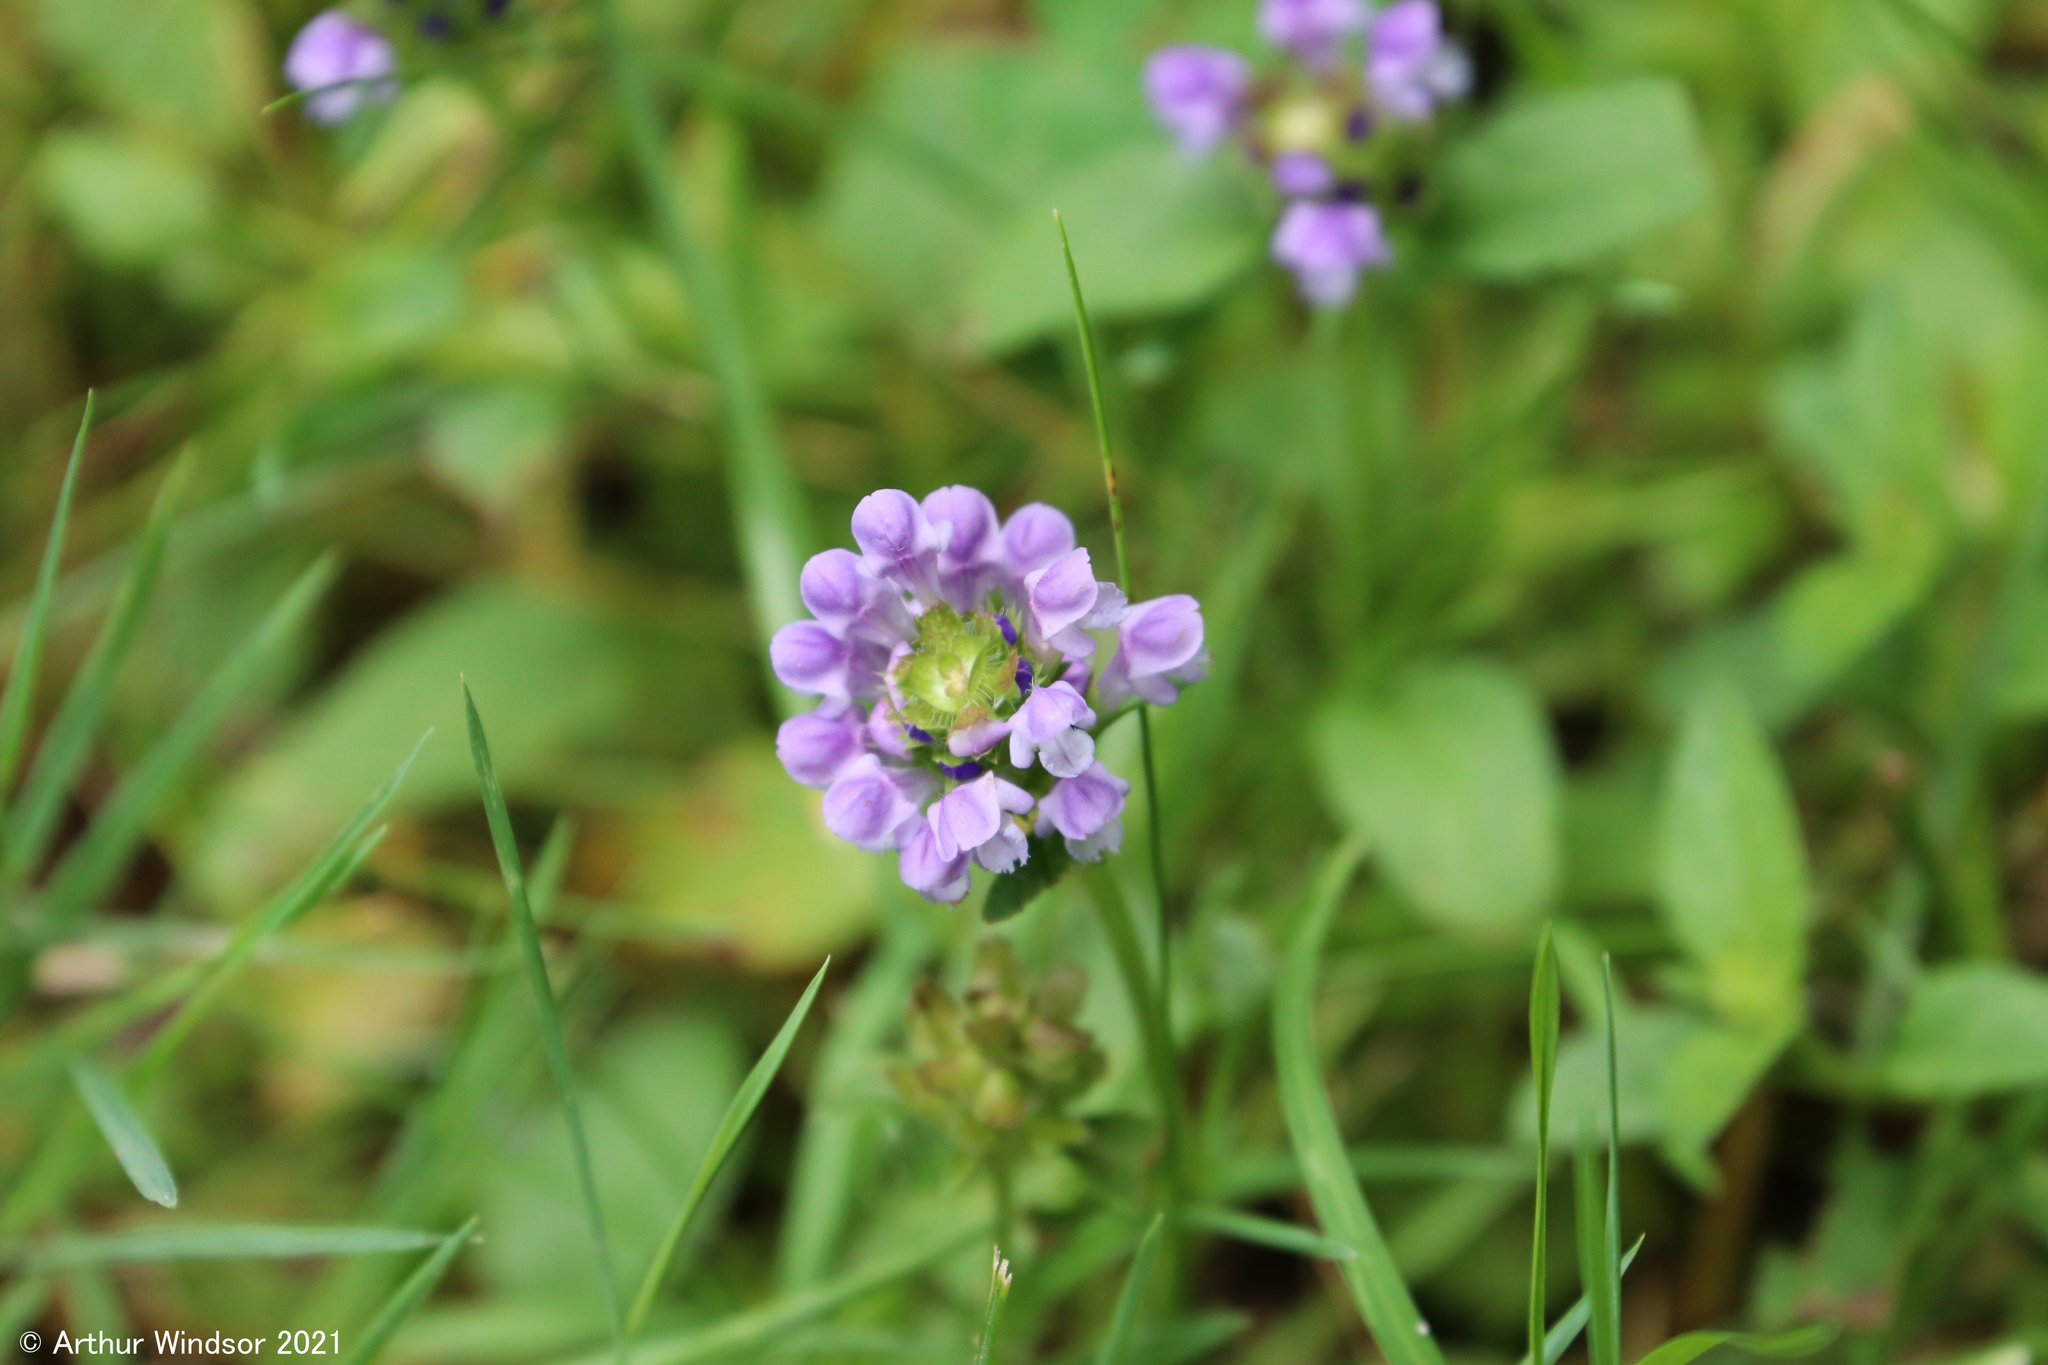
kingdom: Plantae
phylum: Tracheophyta
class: Magnoliopsida
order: Lamiales
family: Lamiaceae
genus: Prunella
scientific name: Prunella vulgaris
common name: Heal-all
